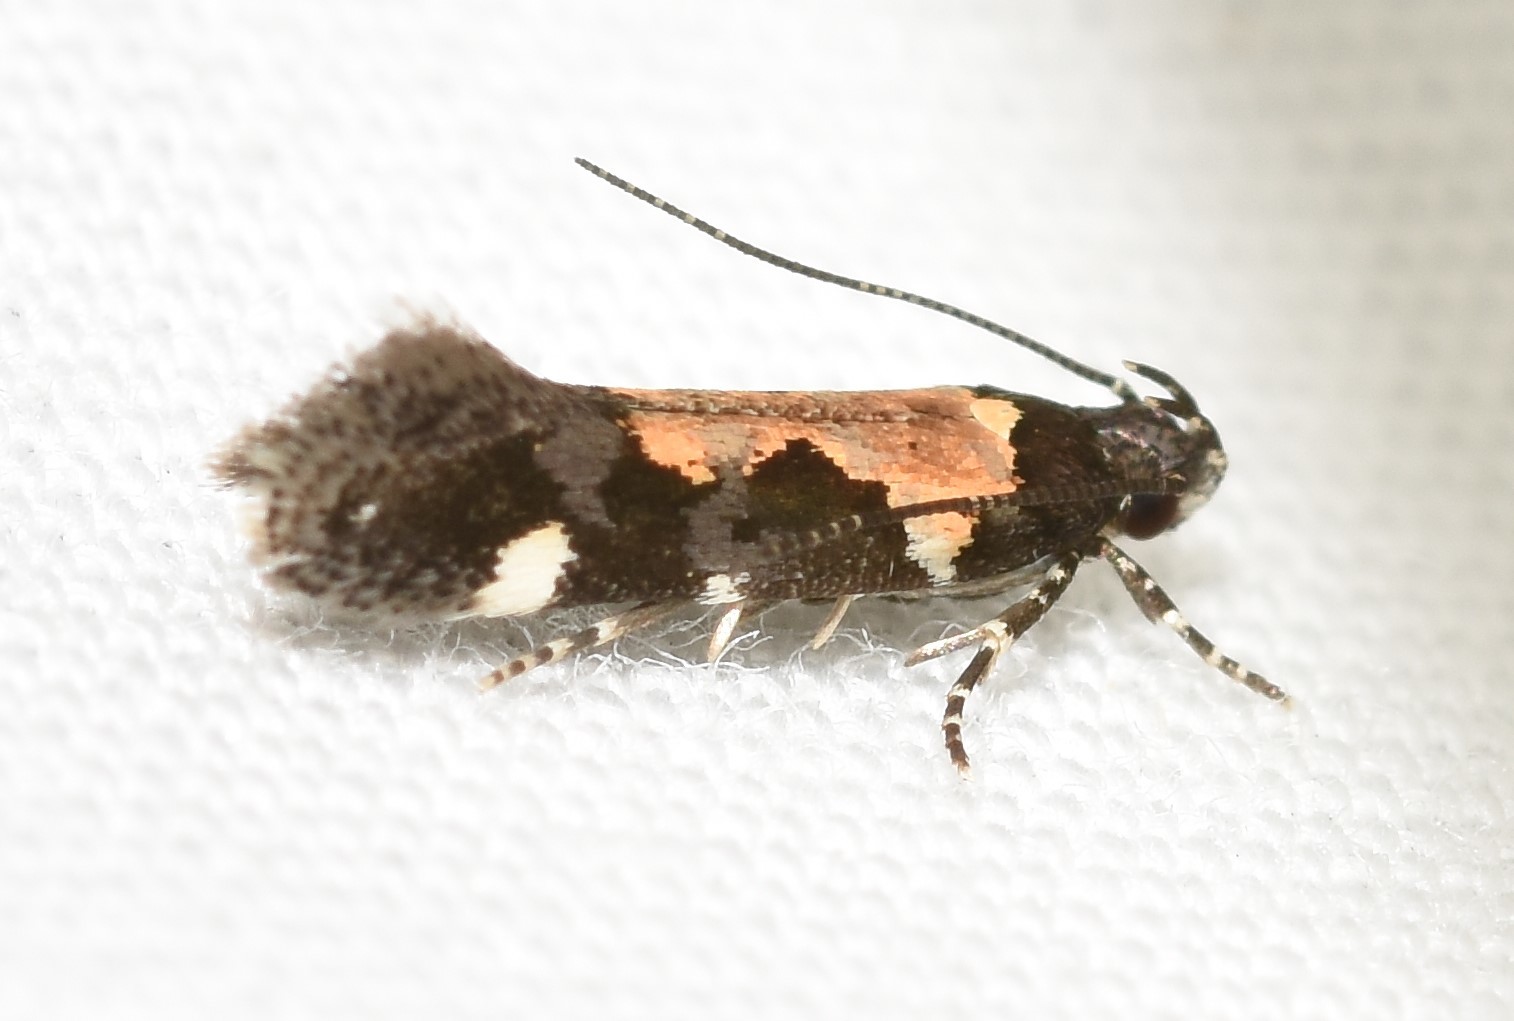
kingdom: Animalia
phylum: Arthropoda
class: Insecta
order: Lepidoptera
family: Gelechiidae
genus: Stegasta
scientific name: Stegasta bosqueella
